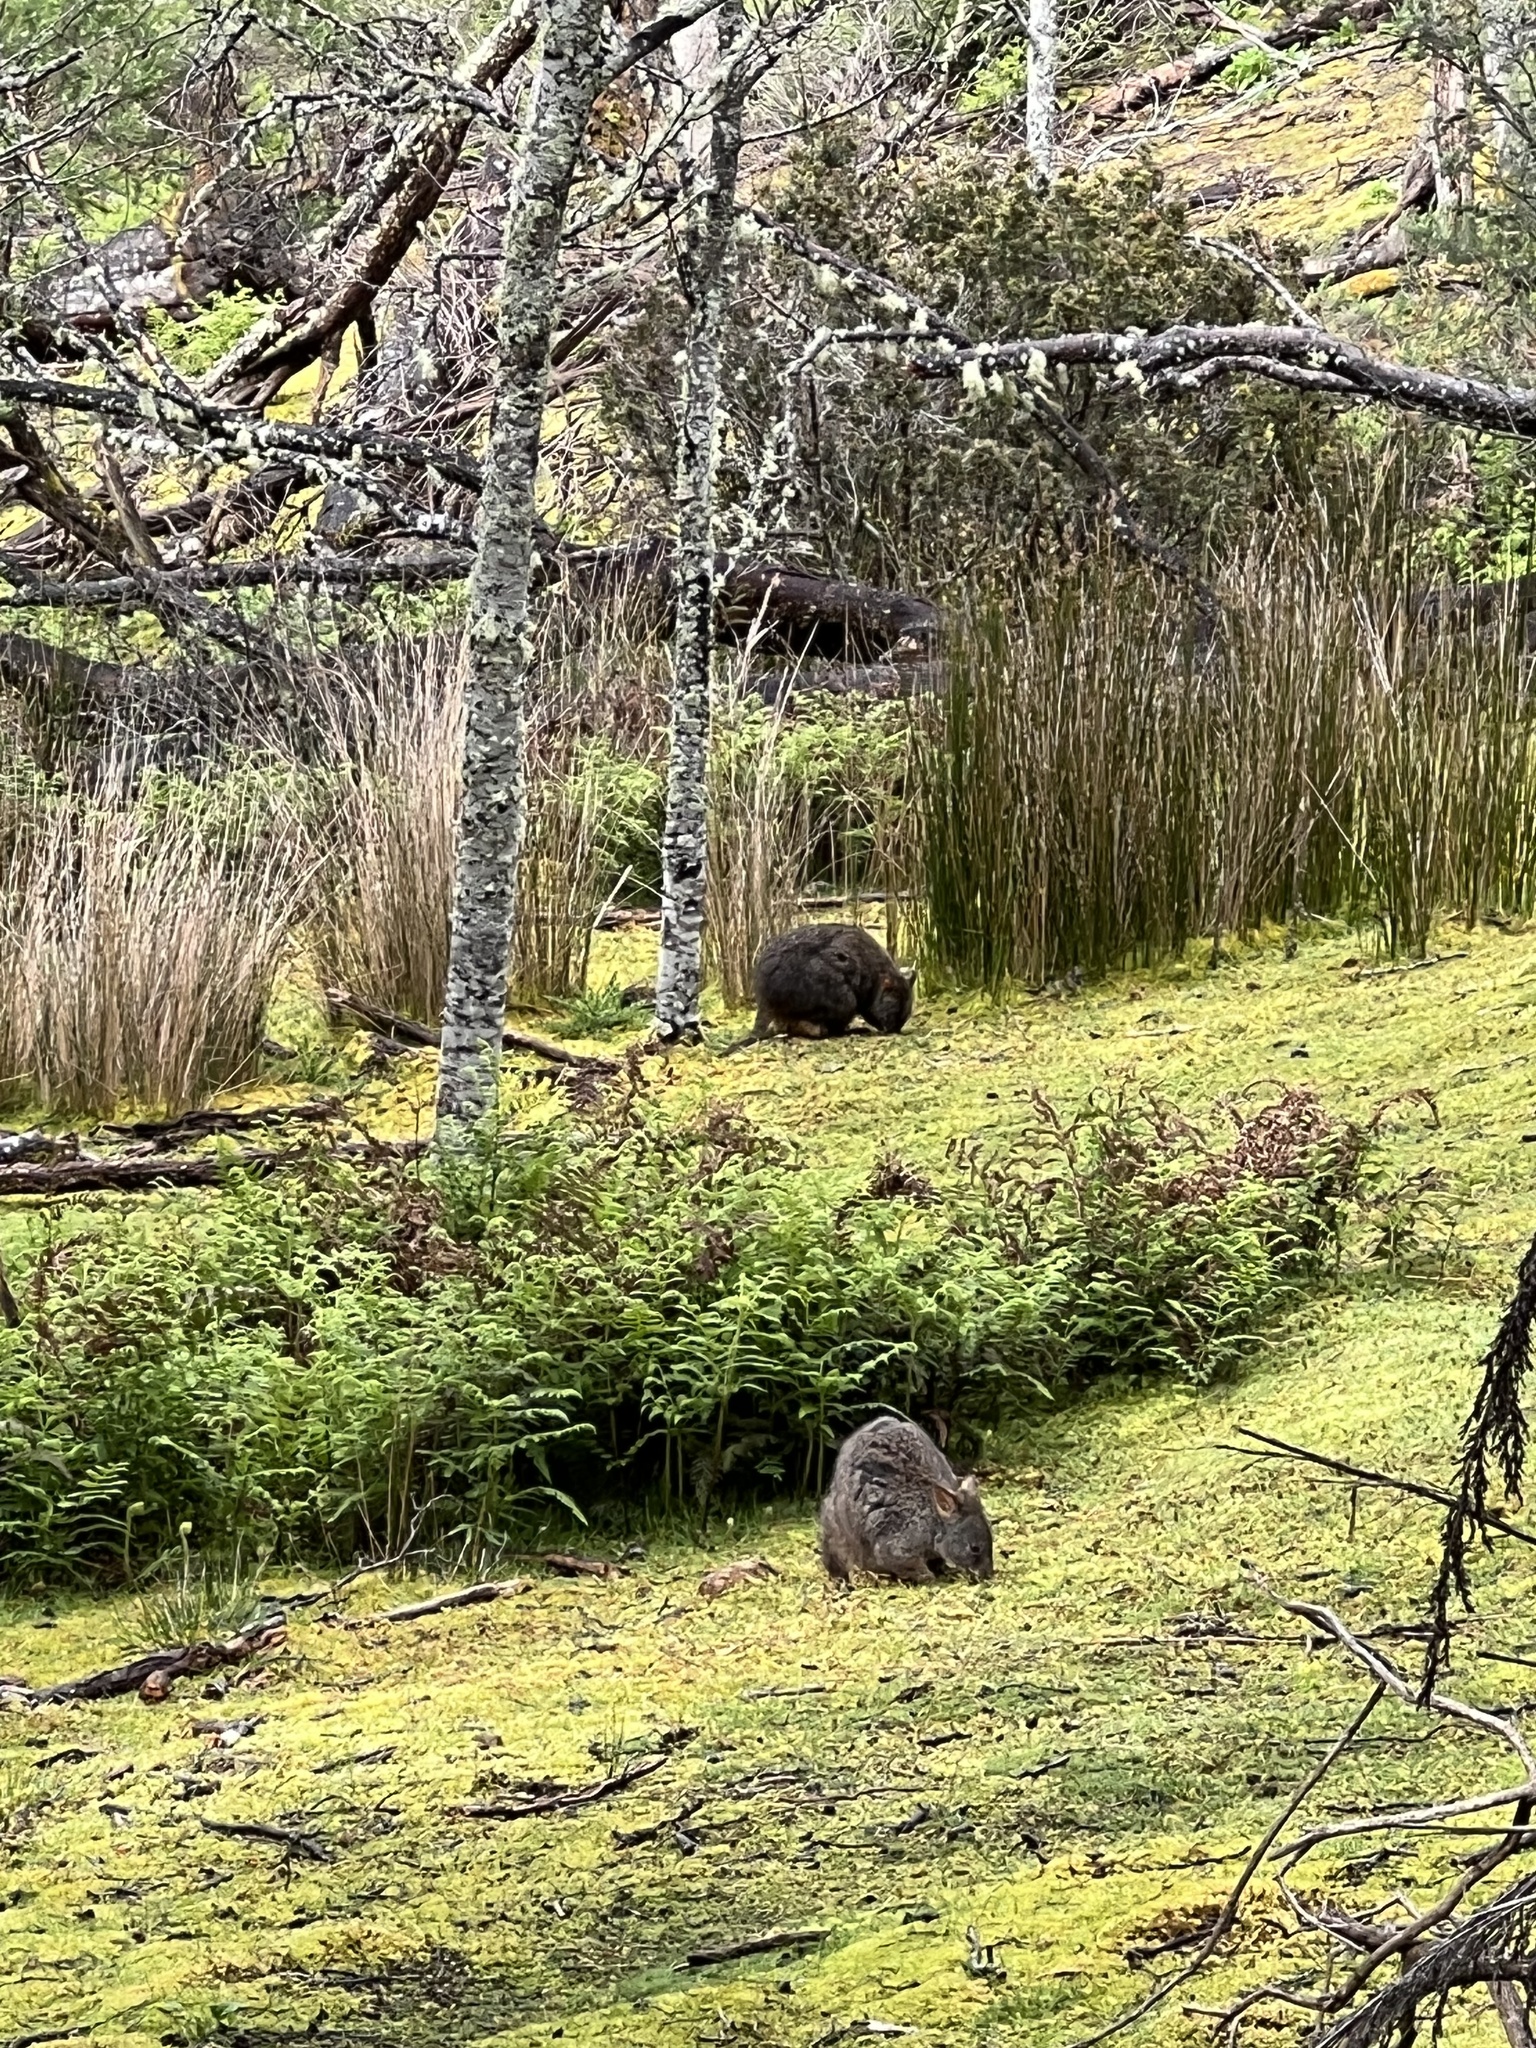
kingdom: Animalia
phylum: Chordata
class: Mammalia
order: Diprotodontia
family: Macropodidae
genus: Thylogale
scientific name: Thylogale billardierii
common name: Tasmanian pademelon
